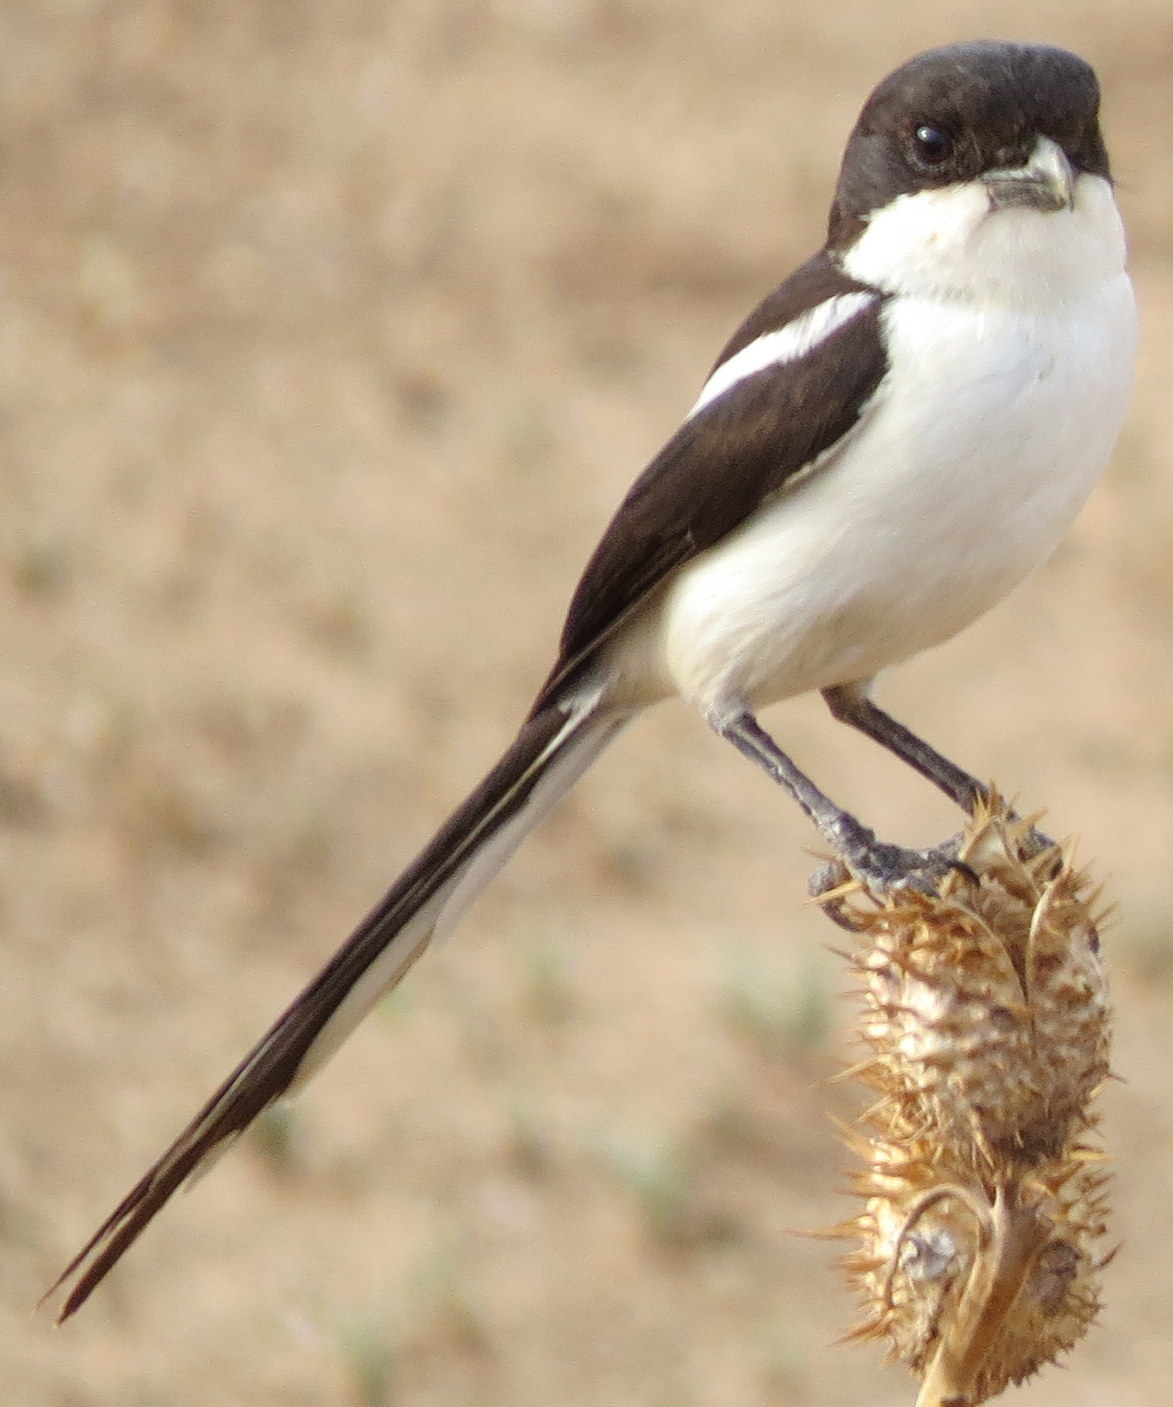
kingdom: Animalia
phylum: Chordata
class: Aves
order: Passeriformes
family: Laniidae
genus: Lanius
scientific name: Lanius humeralis
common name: Northern fiscal
